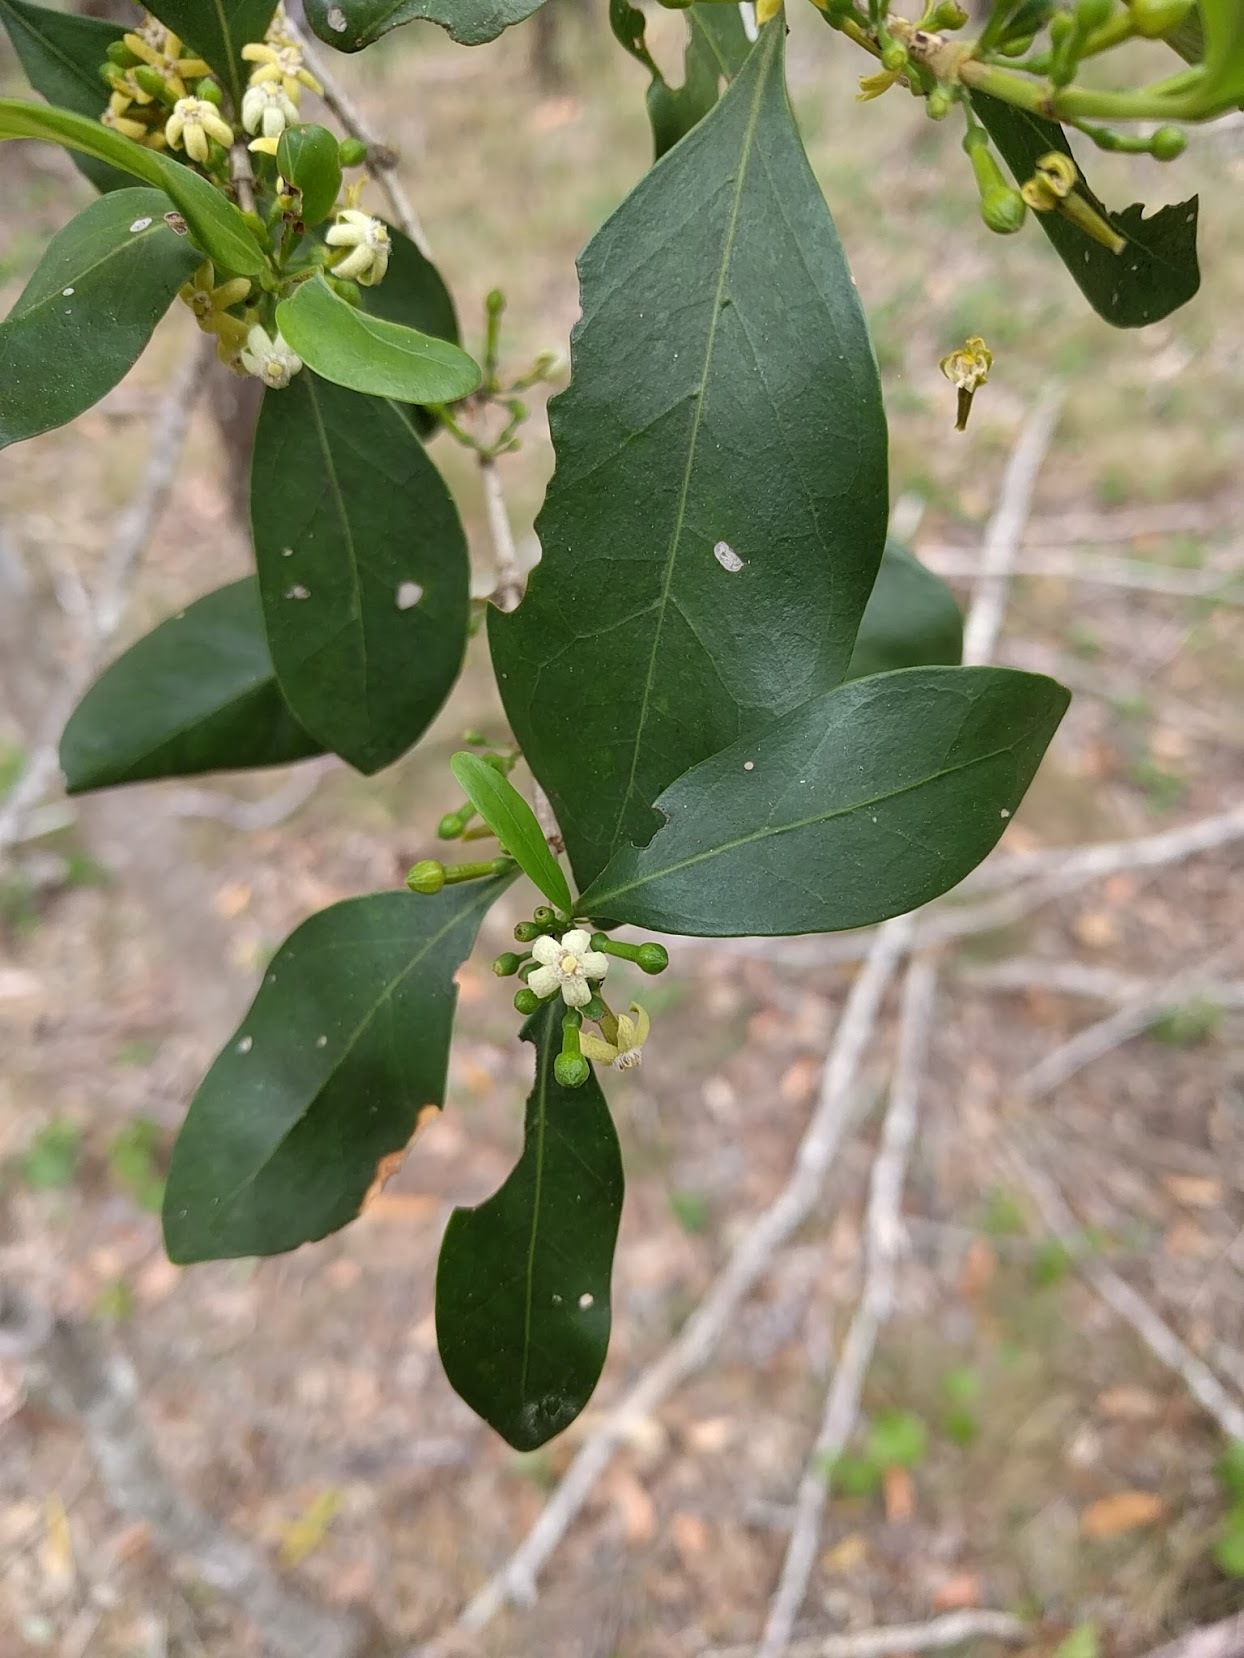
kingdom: Plantae
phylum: Tracheophyta
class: Magnoliopsida
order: Gentianales
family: Rubiaceae
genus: Cyclophyllum
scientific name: Cyclophyllum coprosmoides
